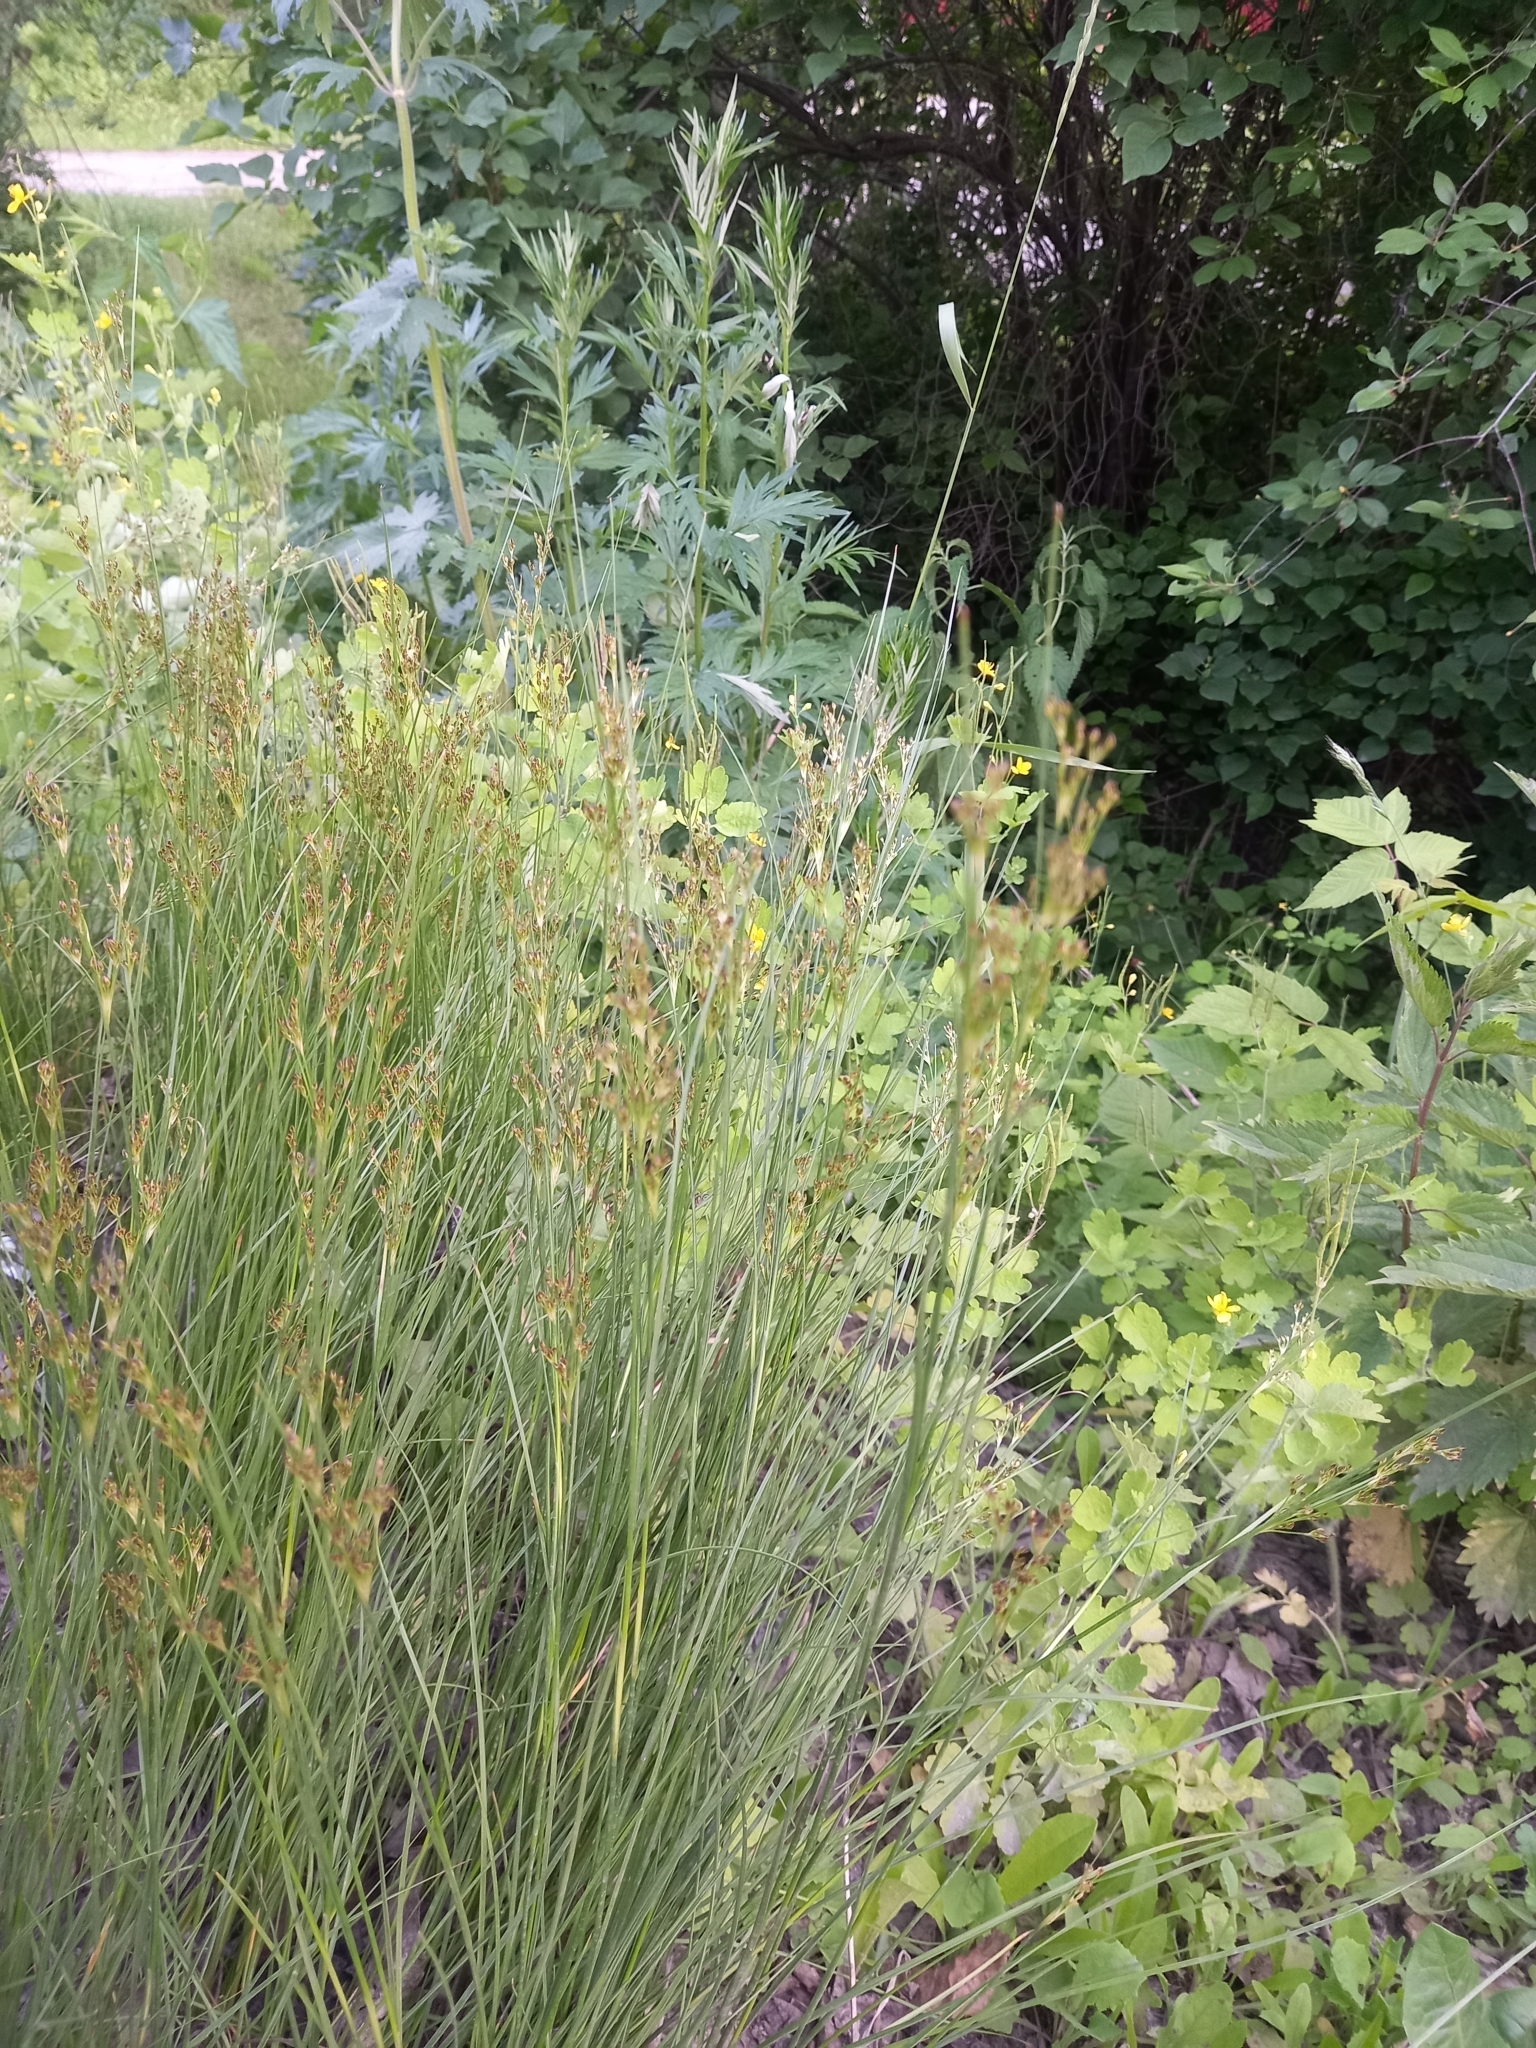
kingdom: Plantae
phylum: Tracheophyta
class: Liliopsida
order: Poales
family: Juncaceae
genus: Juncus
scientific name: Juncus compressus
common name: Round-fruited rush
